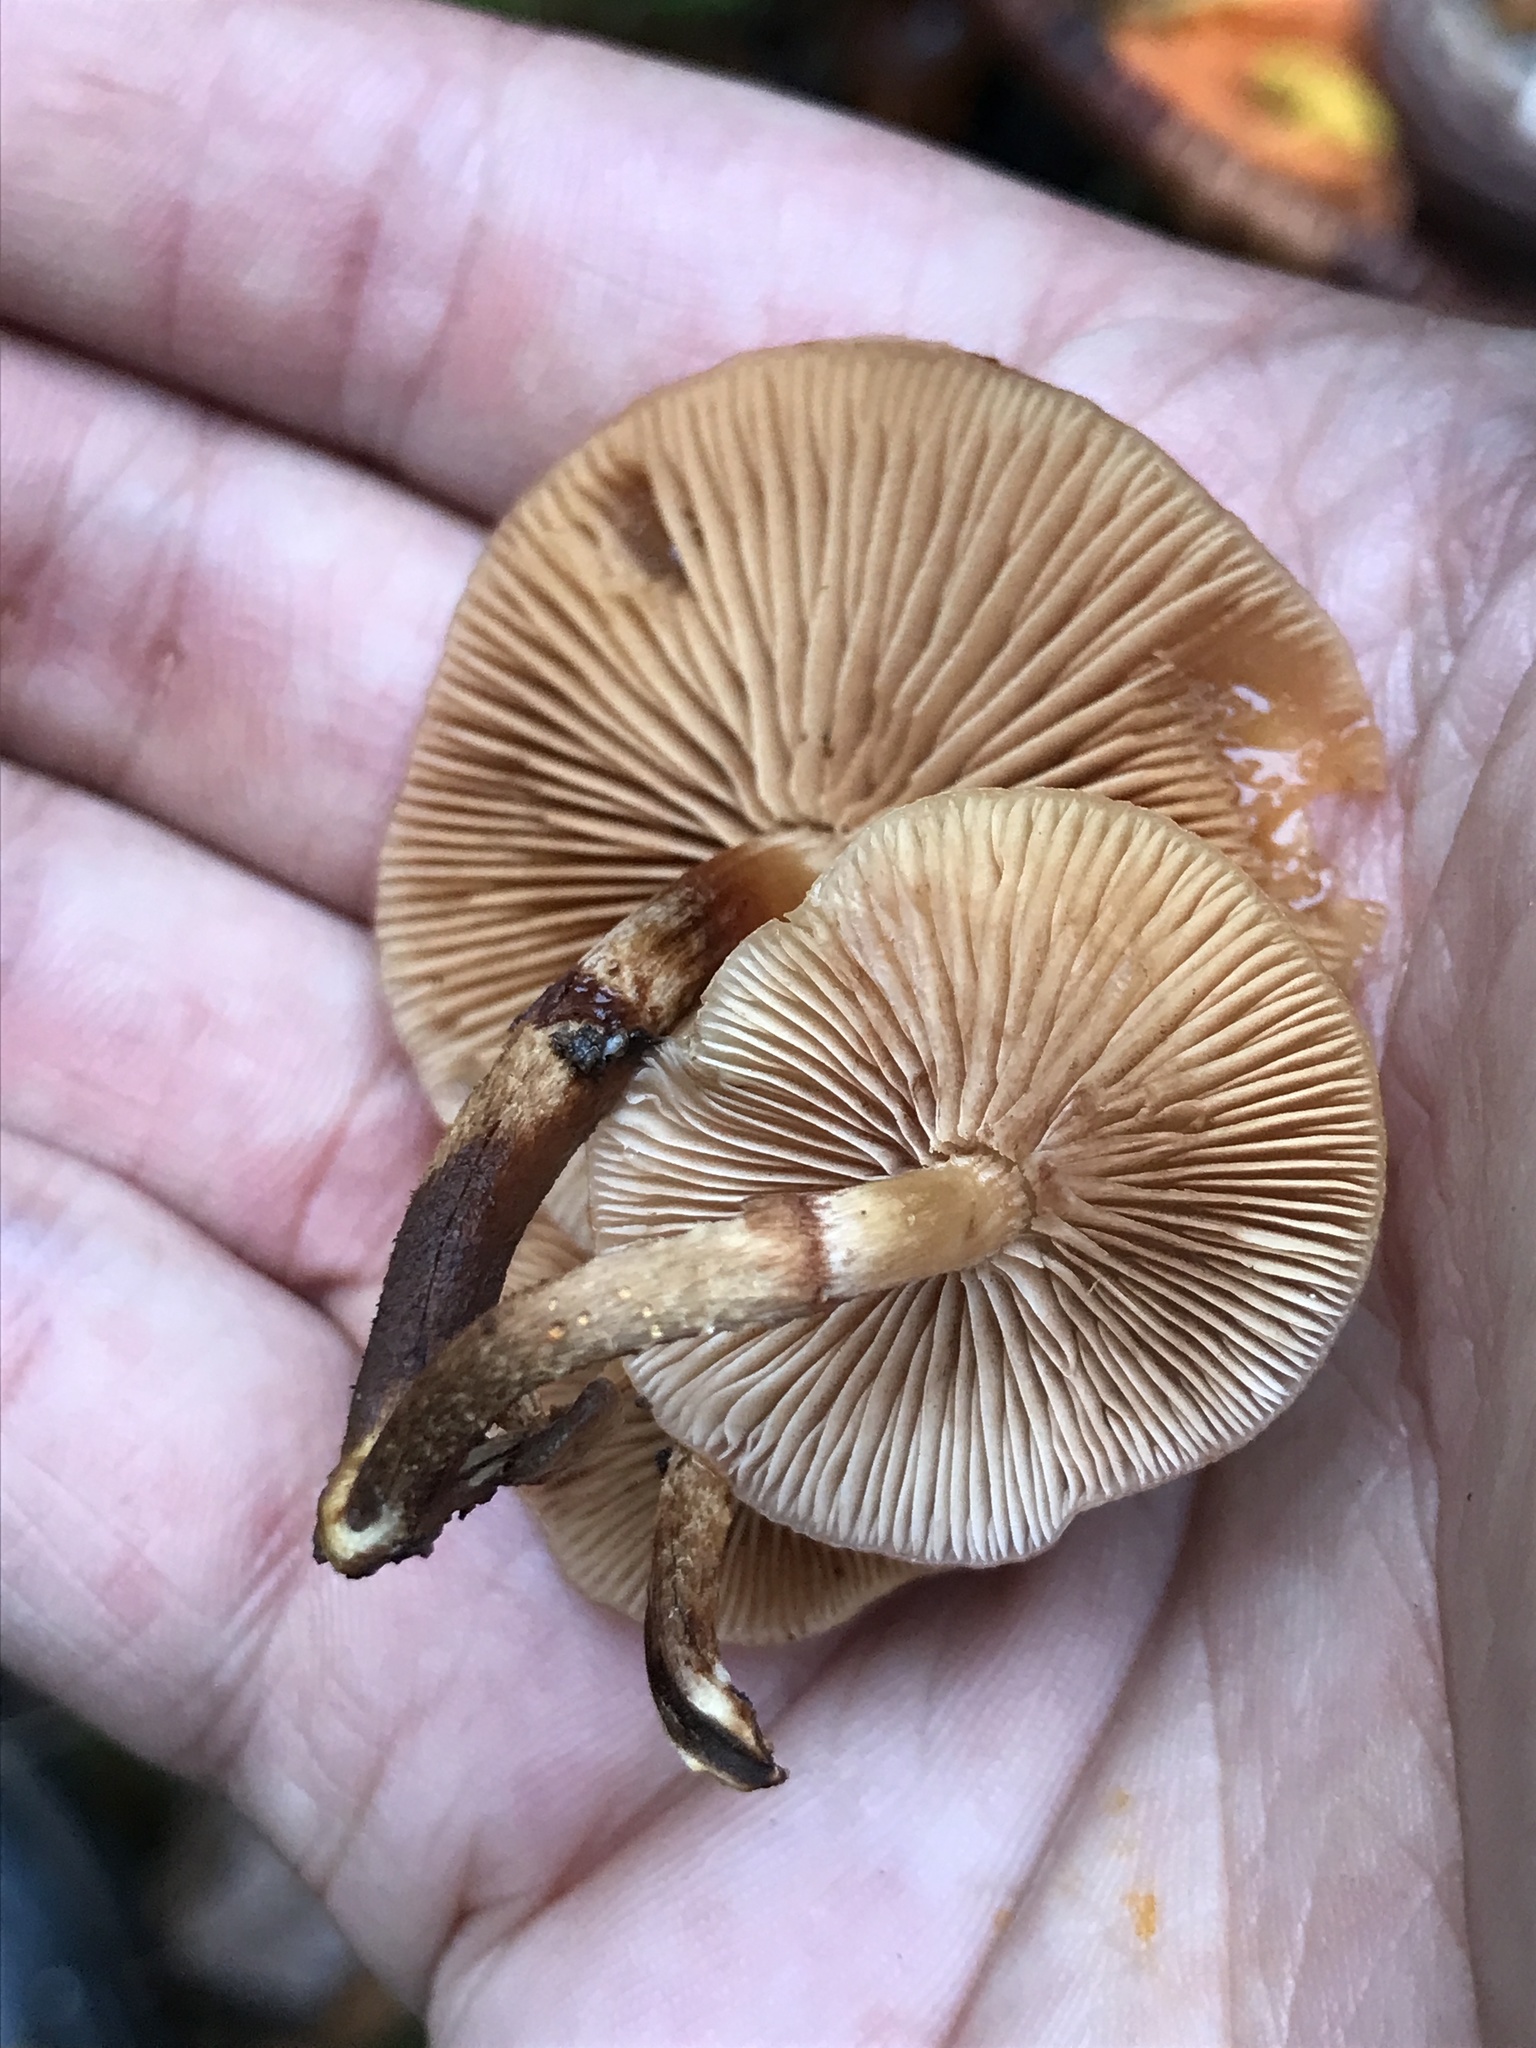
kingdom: Fungi
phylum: Basidiomycota
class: Agaricomycetes
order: Agaricales
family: Strophariaceae
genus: Kuehneromyces
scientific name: Kuehneromyces mutabilis
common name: Sheathed woodtuft
